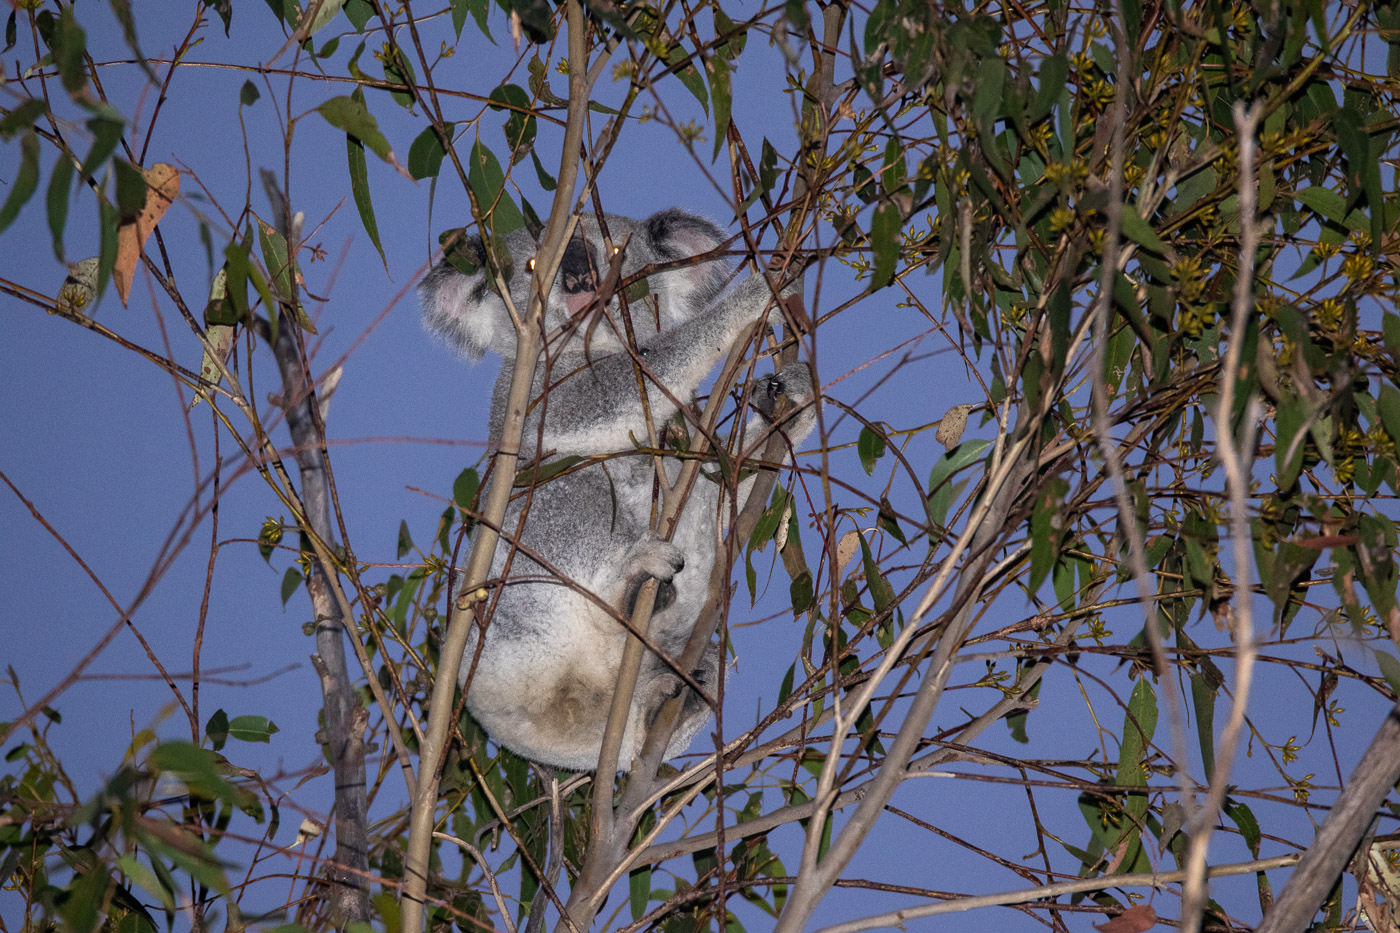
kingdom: Animalia
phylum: Chordata
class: Mammalia
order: Diprotodontia
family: Phascolarctidae
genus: Phascolarctos
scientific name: Phascolarctos cinereus
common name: Koala
